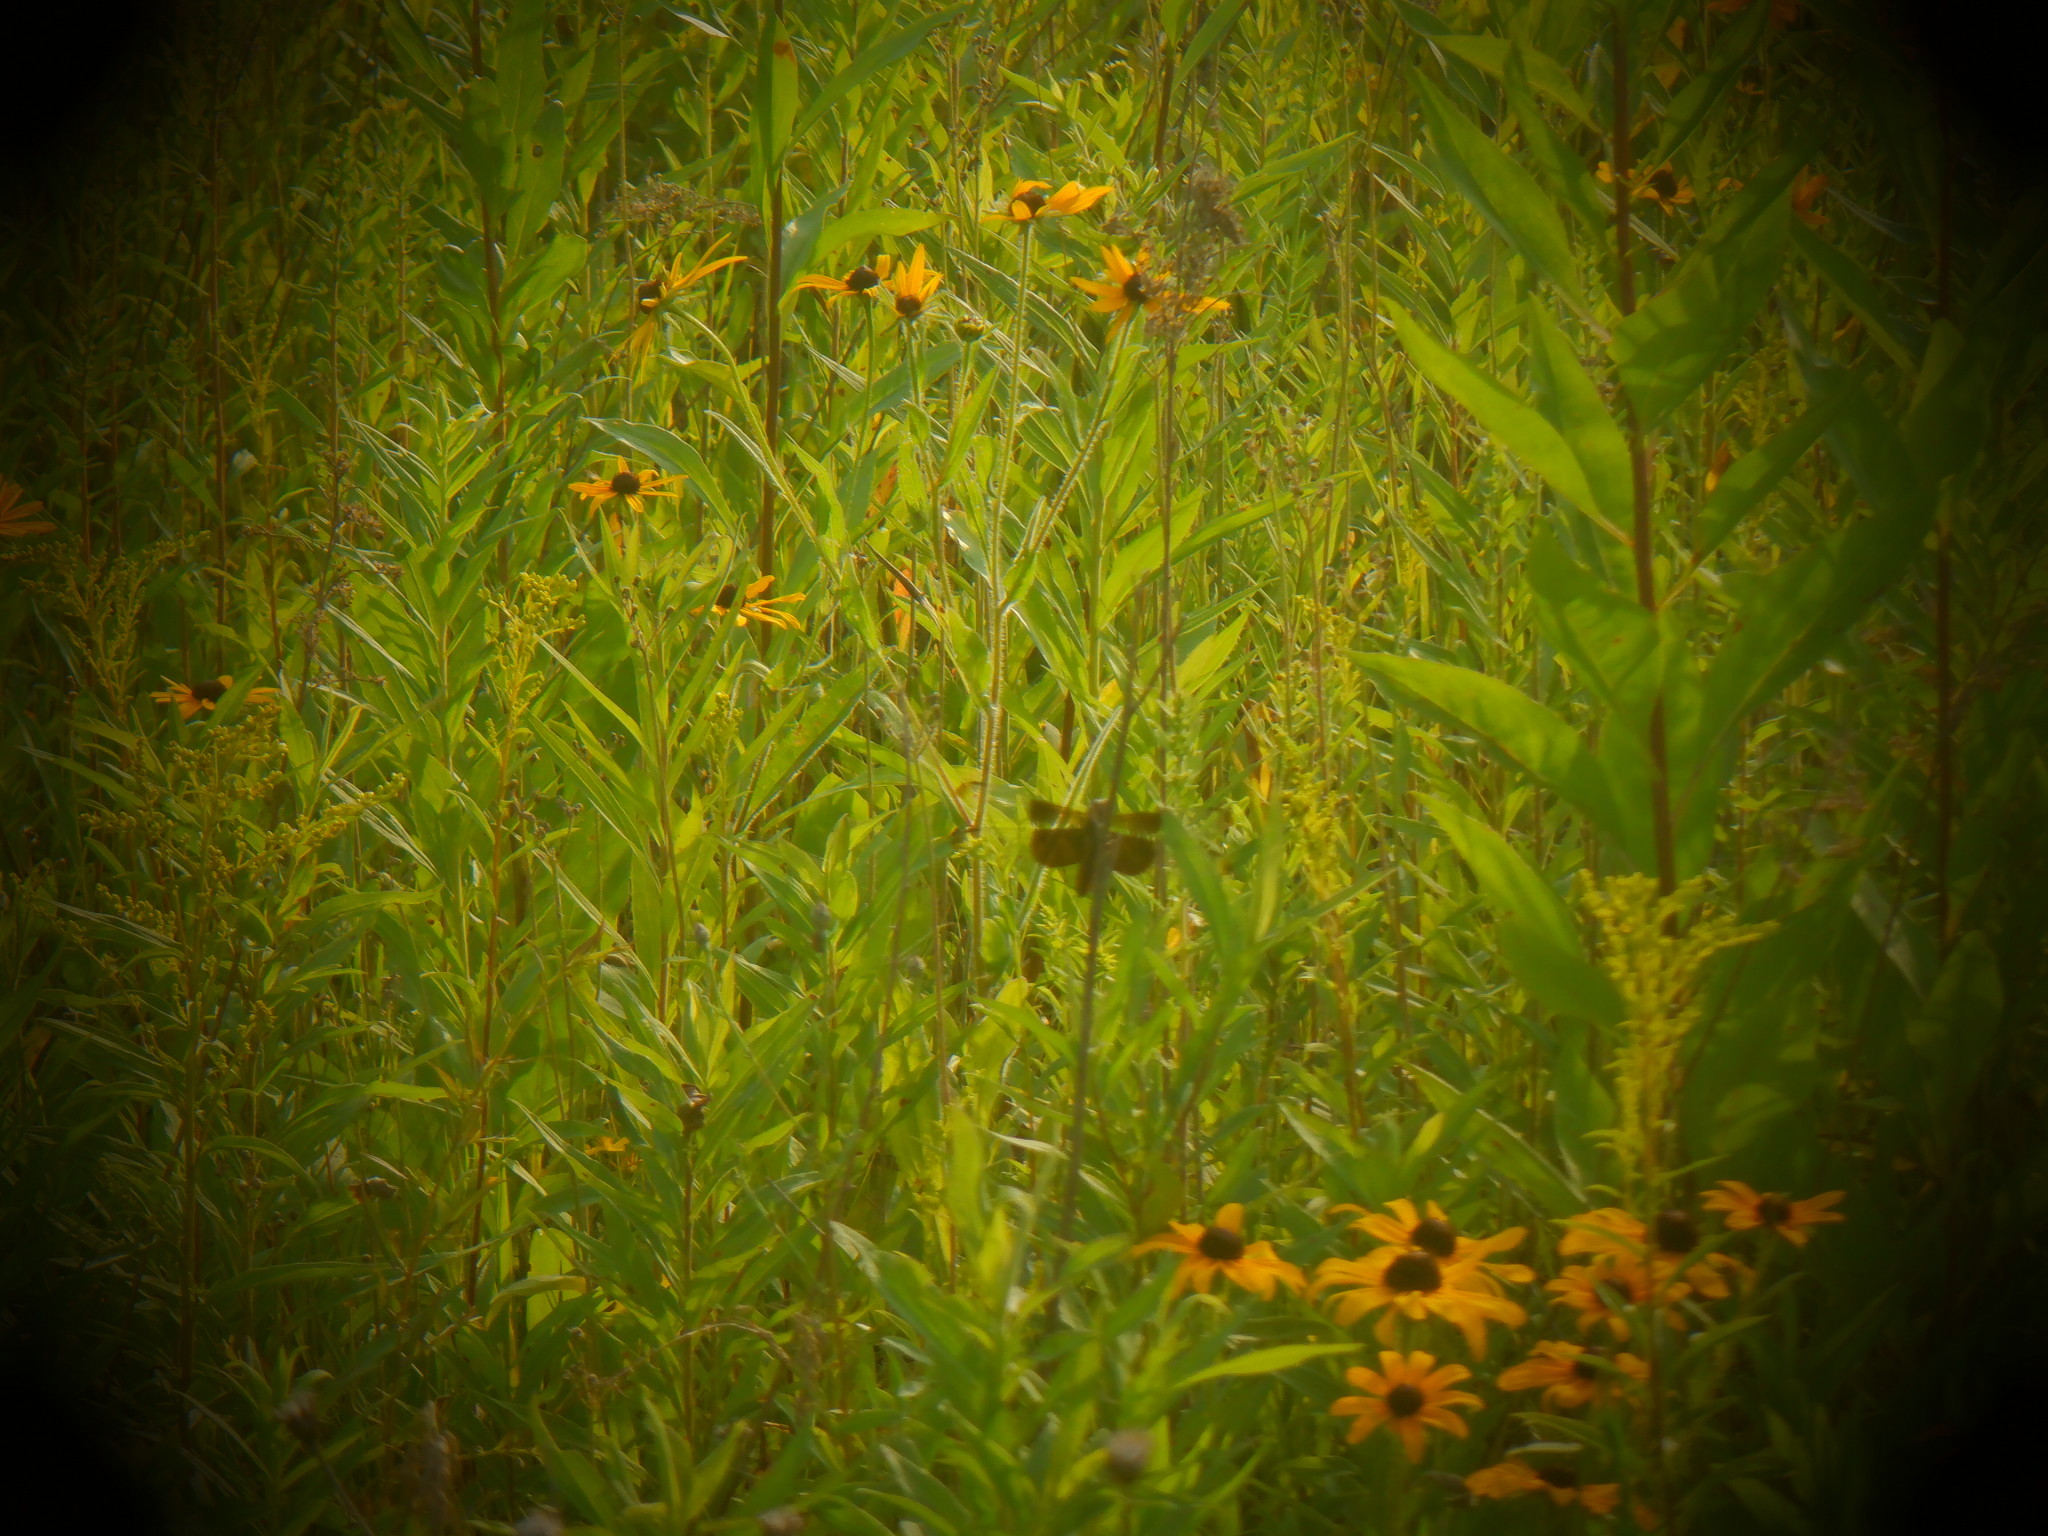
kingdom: Animalia
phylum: Arthropoda
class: Insecta
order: Odonata
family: Libellulidae
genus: Libellula
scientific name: Libellula luctuosa
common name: Widow skimmer
